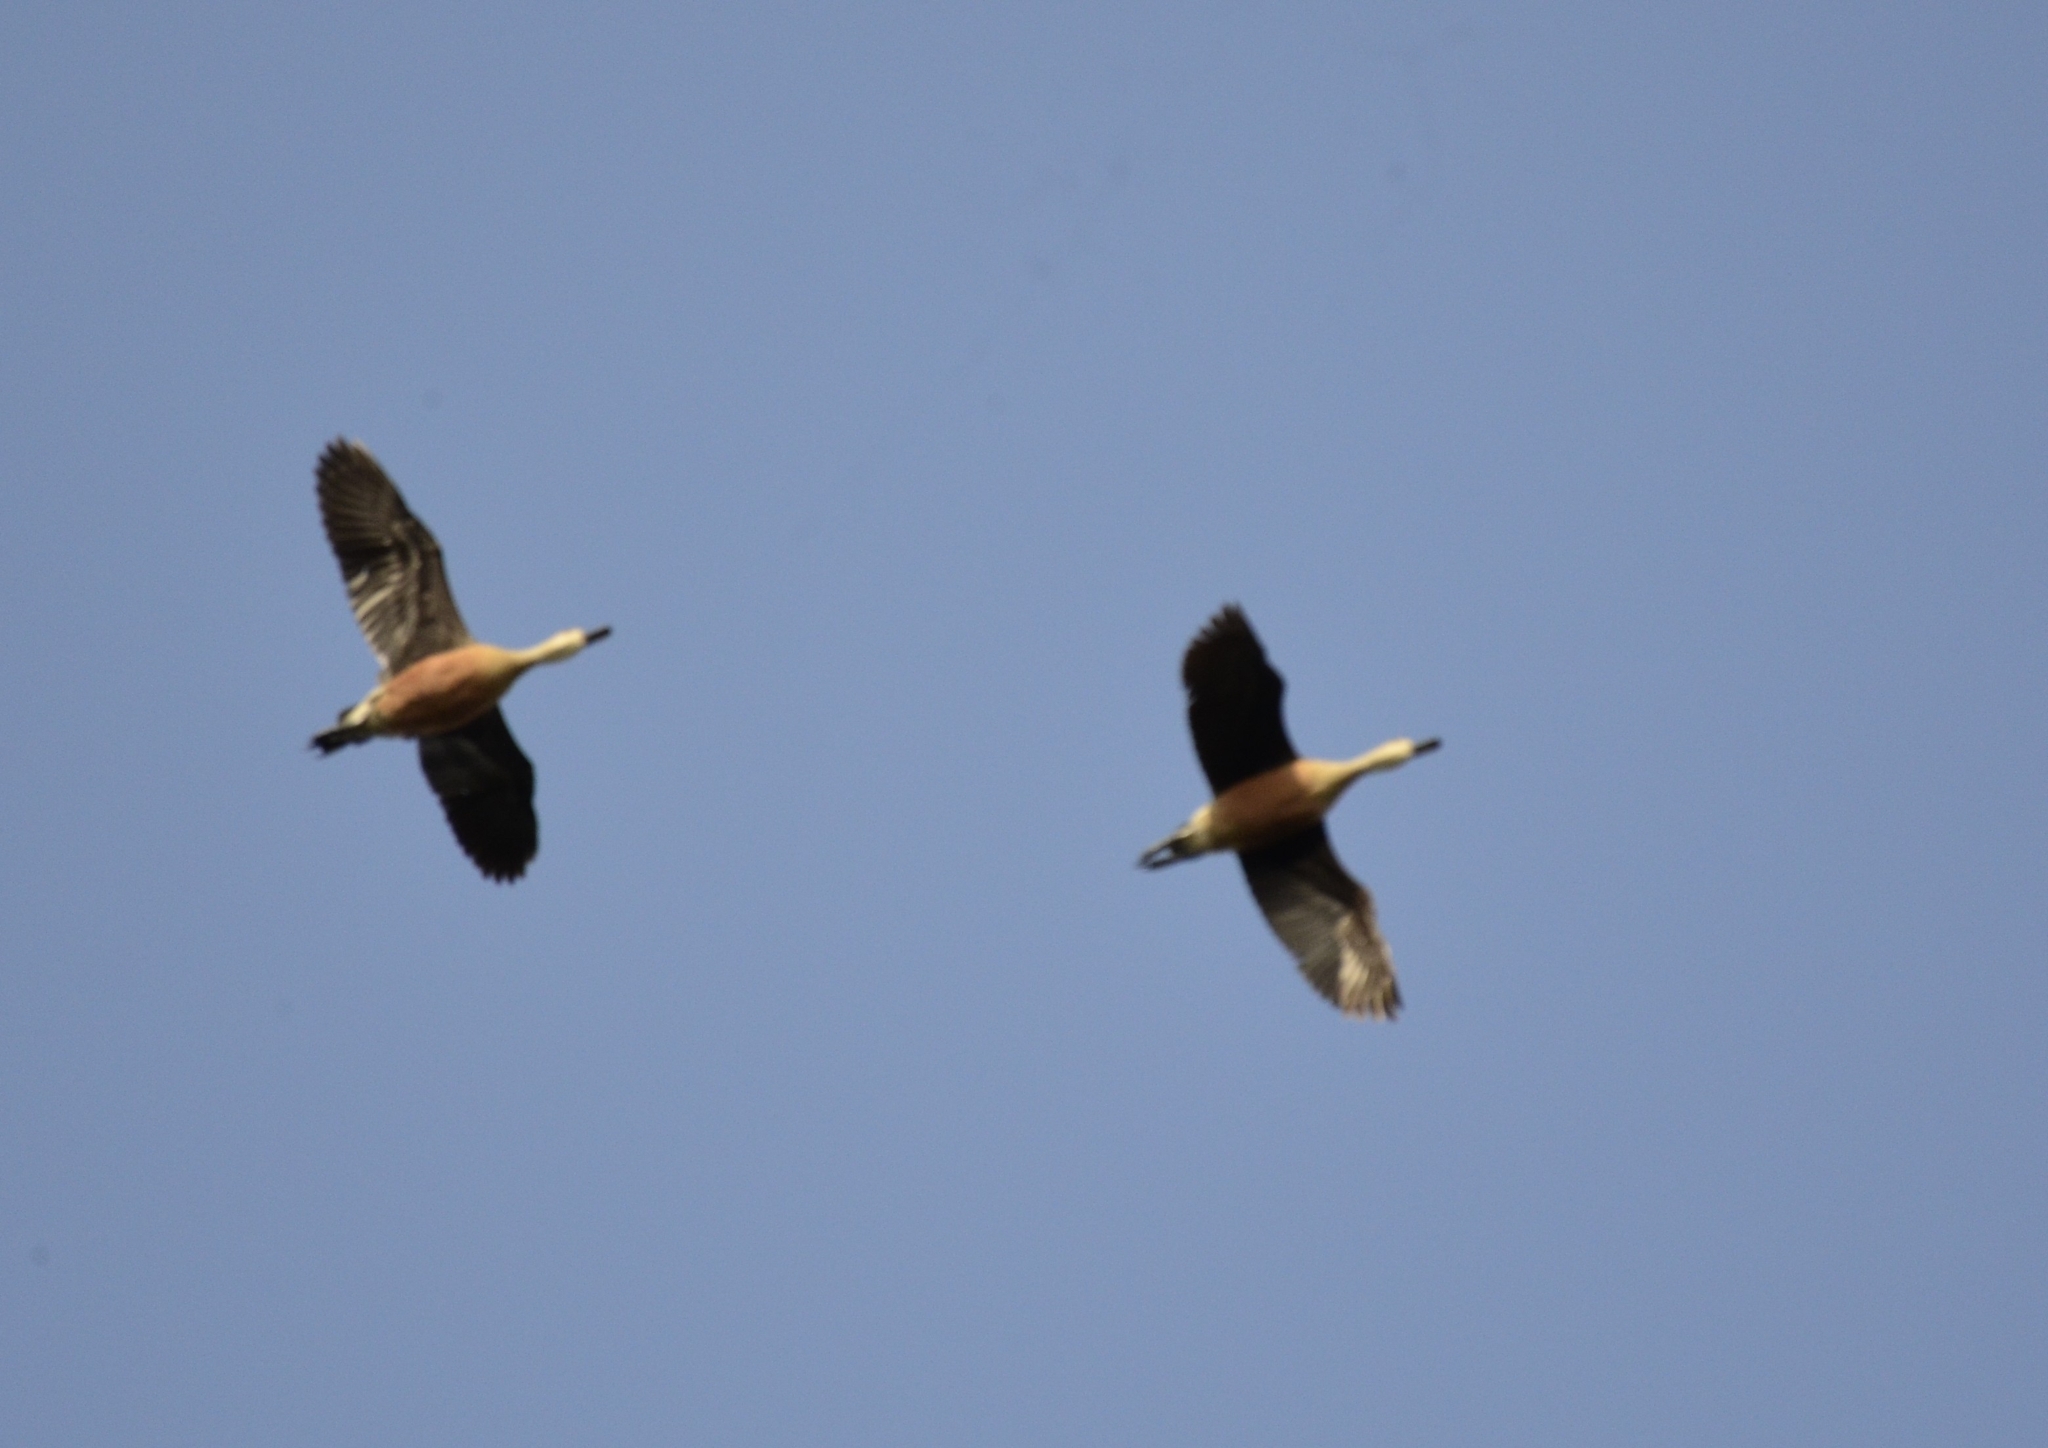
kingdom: Animalia
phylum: Chordata
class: Aves
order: Anseriformes
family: Anatidae
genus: Dendrocygna
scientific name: Dendrocygna javanica
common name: Lesser whistling-duck
